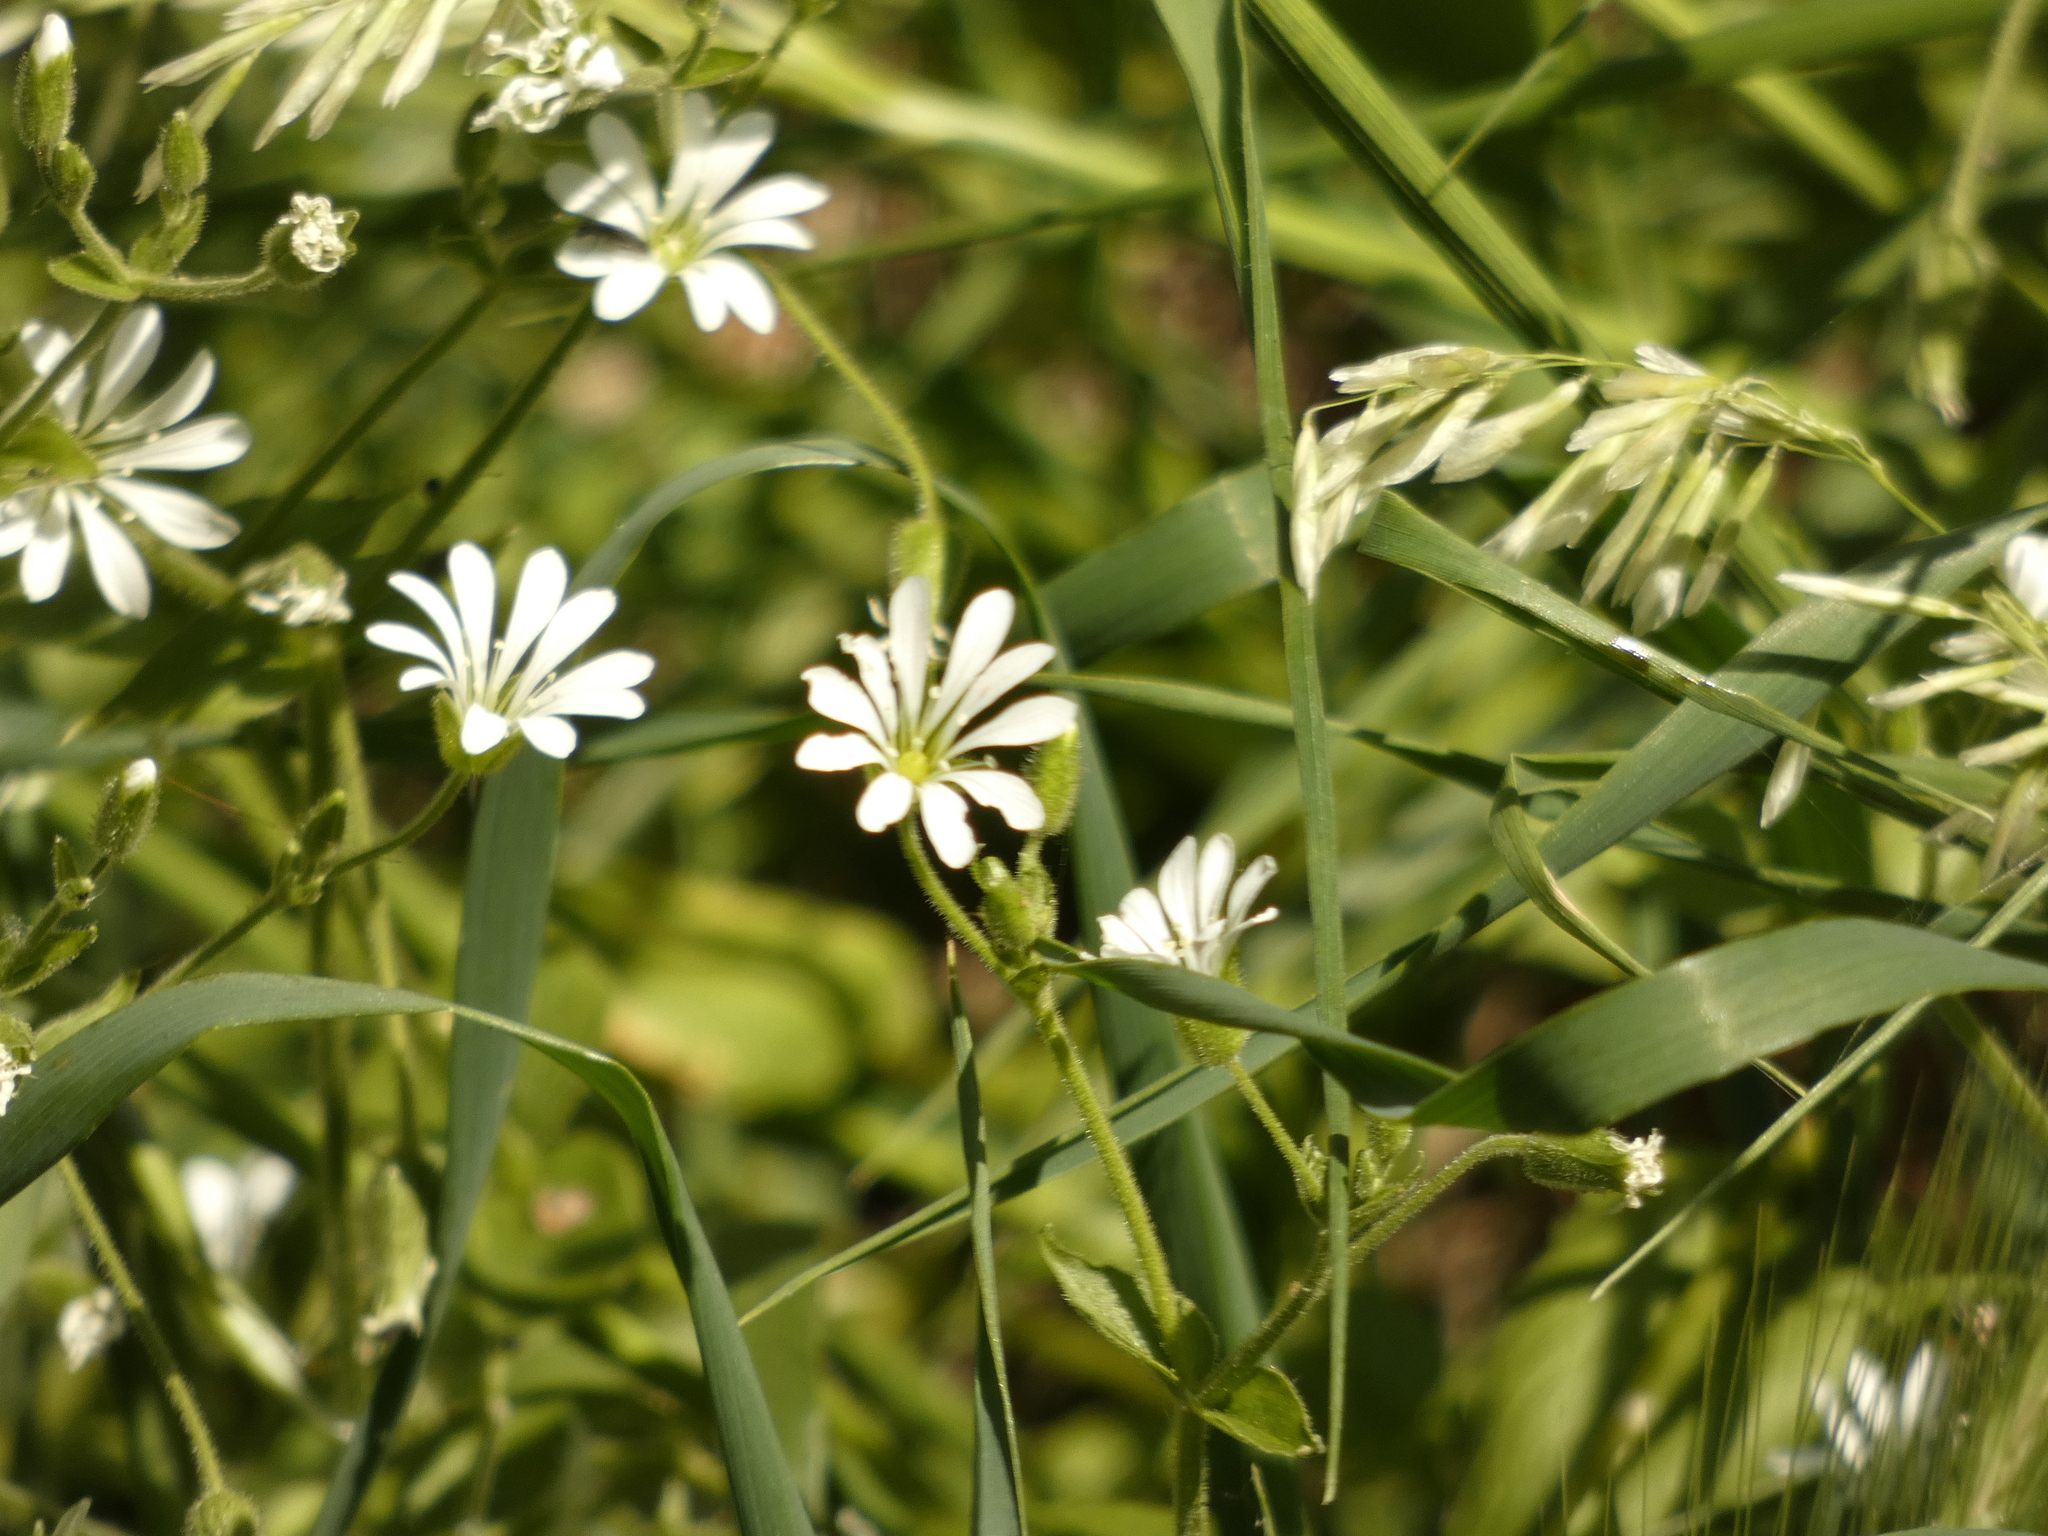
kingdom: Plantae
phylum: Tracheophyta
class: Magnoliopsida
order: Caryophyllales
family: Caryophyllaceae
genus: Stellaria
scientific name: Stellaria chilensis
